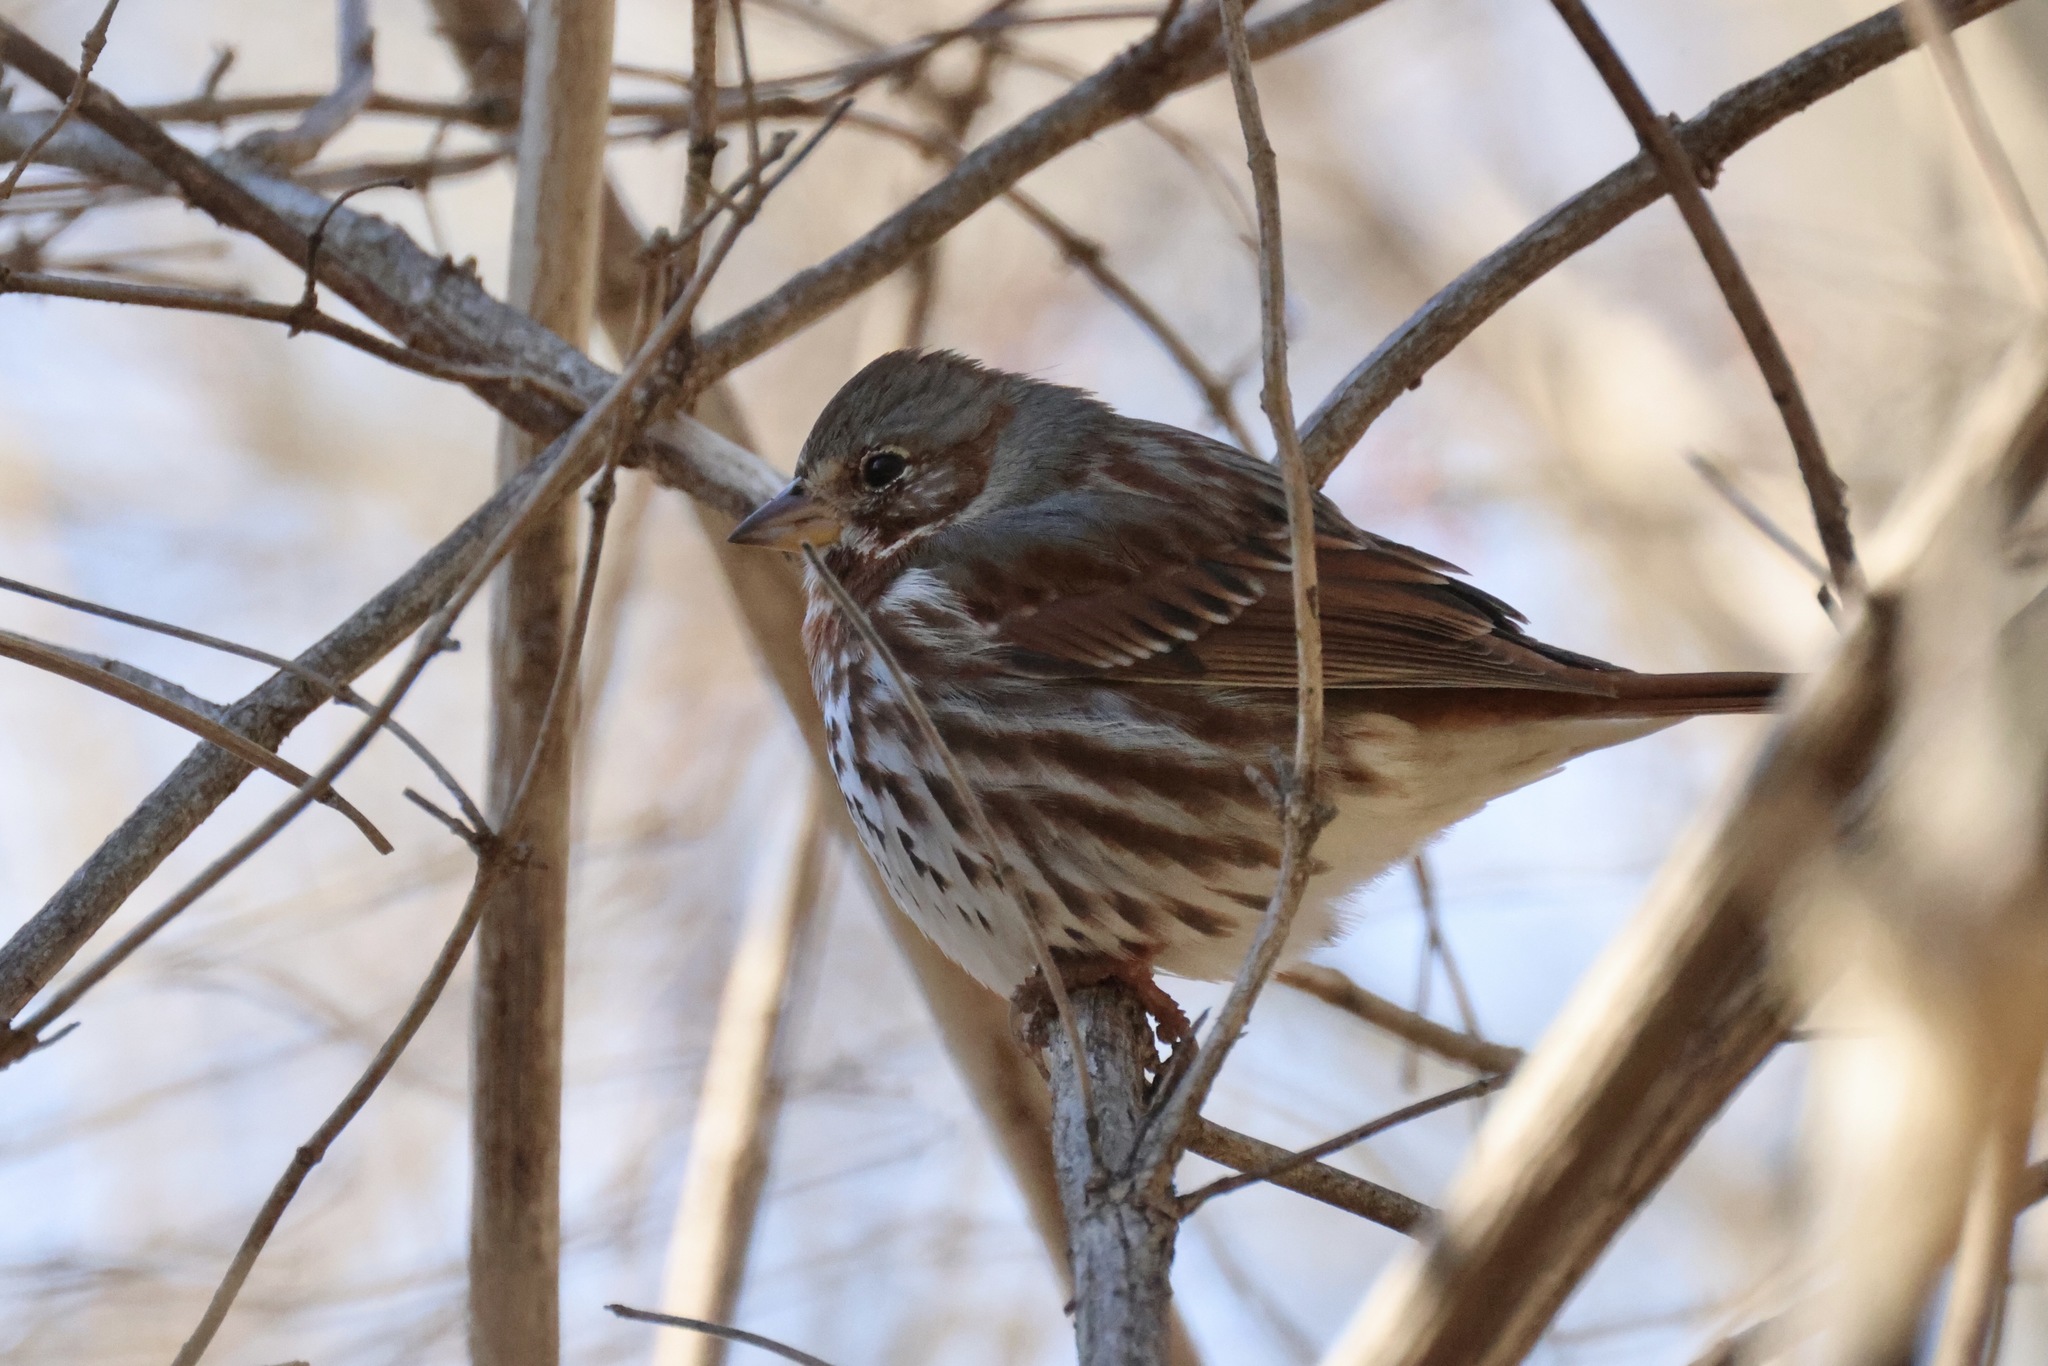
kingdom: Animalia
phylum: Chordata
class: Aves
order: Passeriformes
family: Passerellidae
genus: Passerella
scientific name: Passerella iliaca
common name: Fox sparrow
